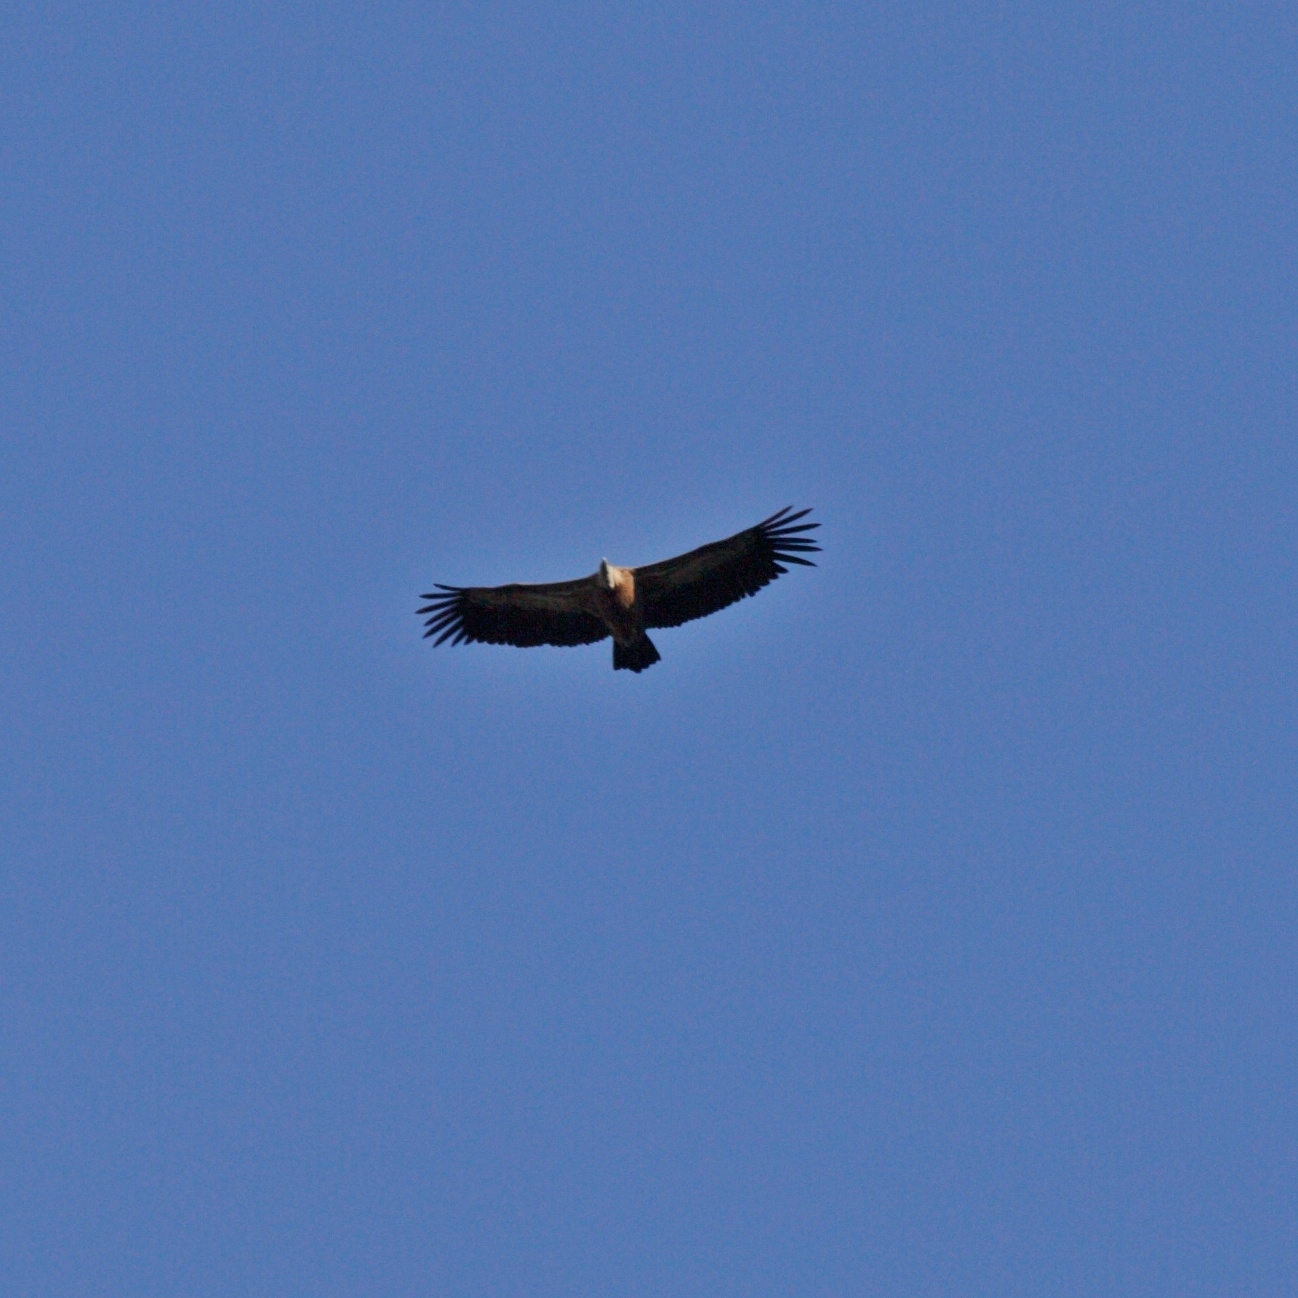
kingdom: Animalia
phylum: Chordata
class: Aves
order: Accipitriformes
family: Accipitridae
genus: Gyps
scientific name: Gyps fulvus
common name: Griffon vulture
